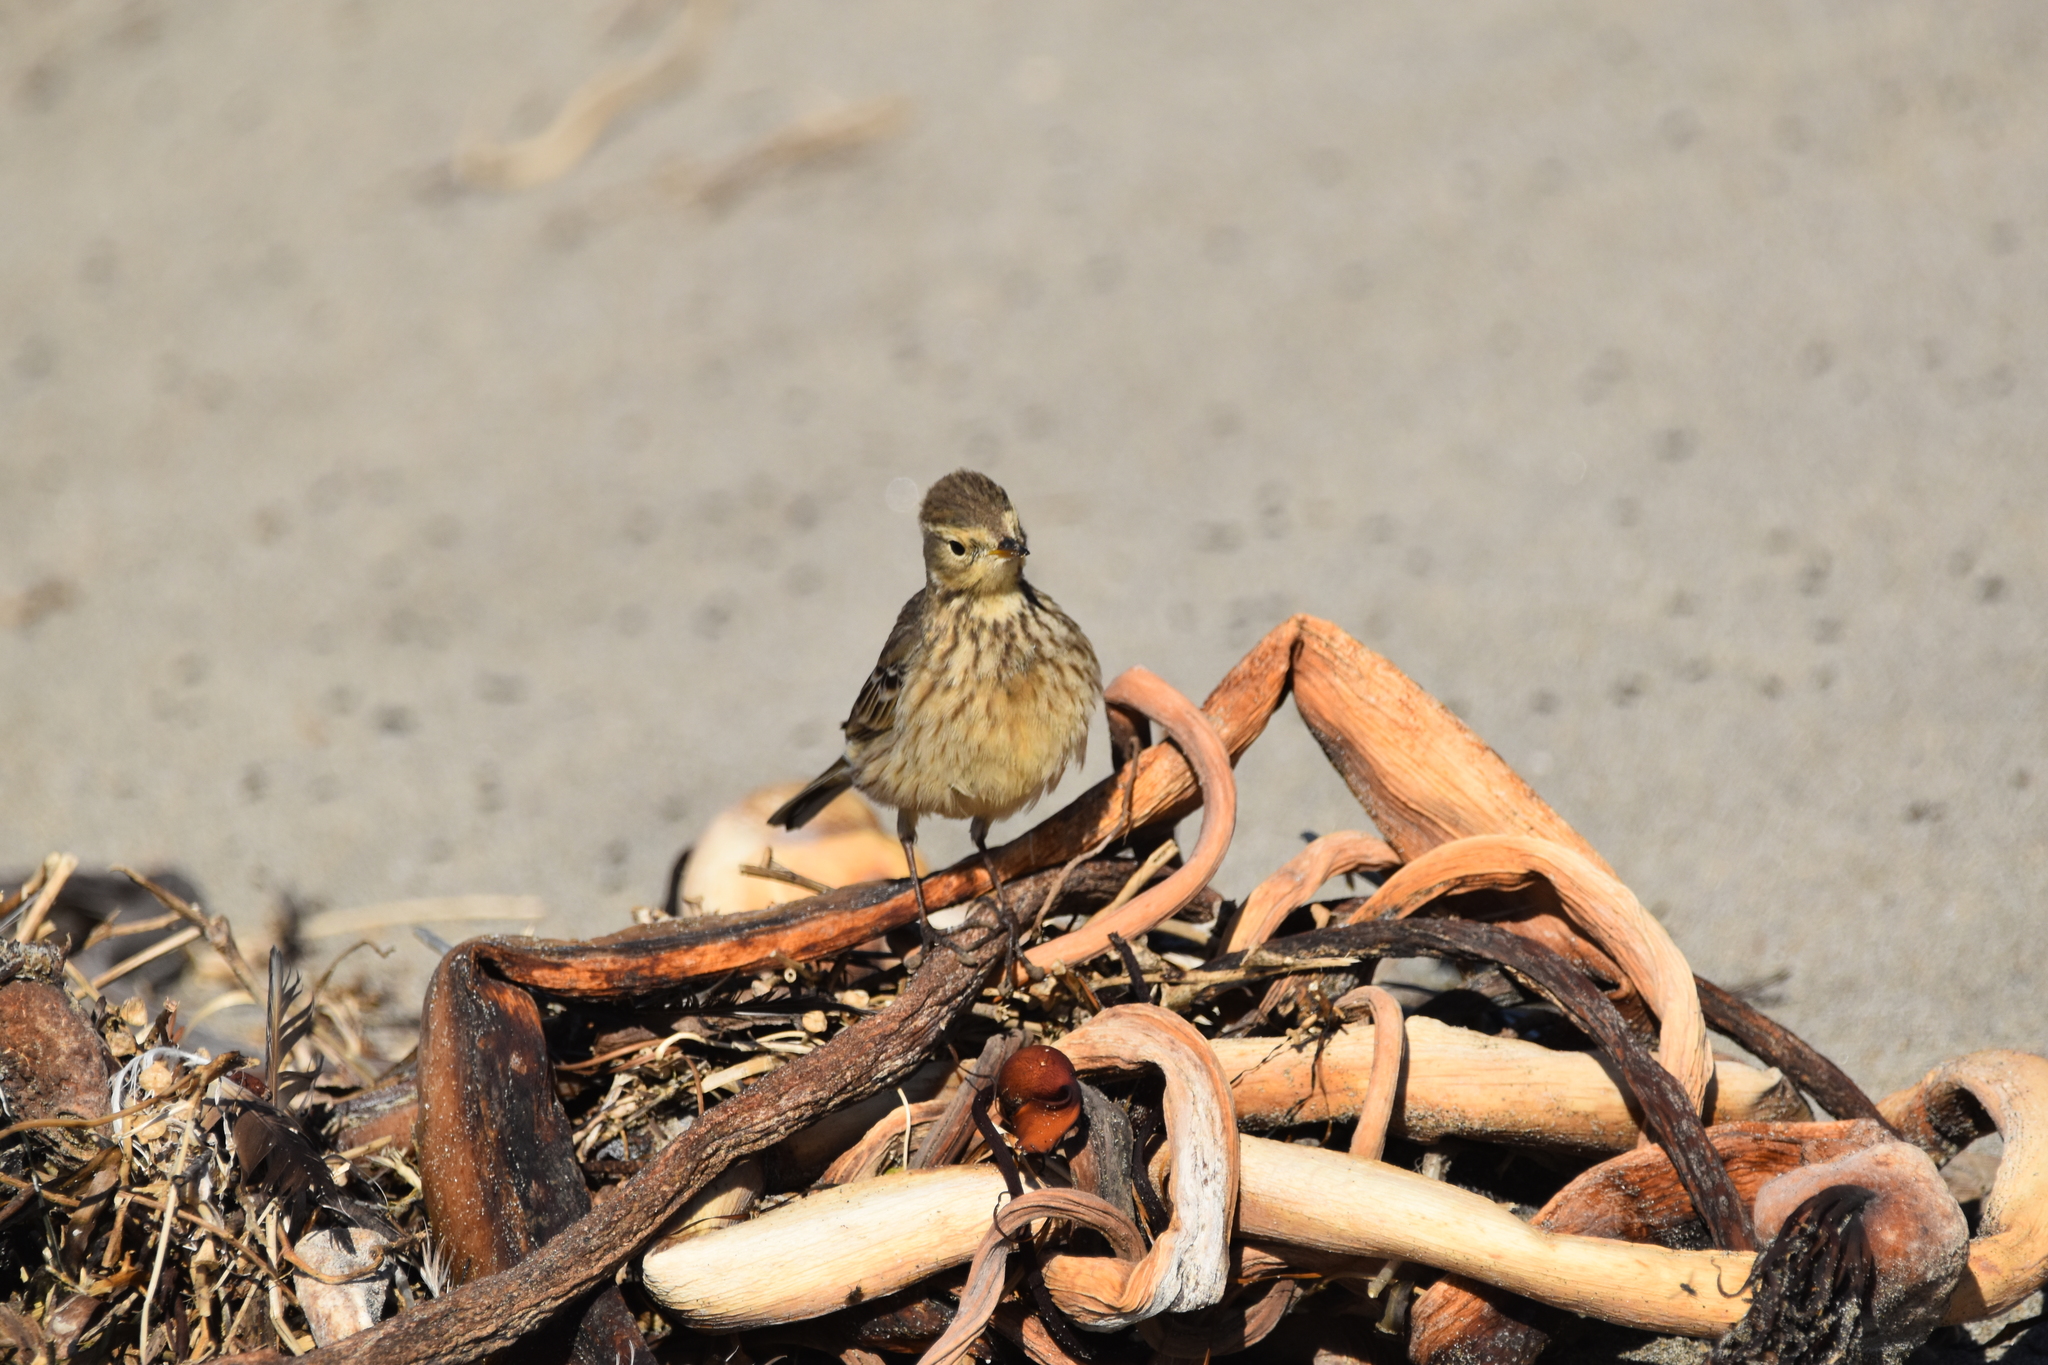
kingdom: Animalia
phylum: Chordata
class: Aves
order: Passeriformes
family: Motacillidae
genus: Anthus
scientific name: Anthus rubescens
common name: Buff-bellied pipit
